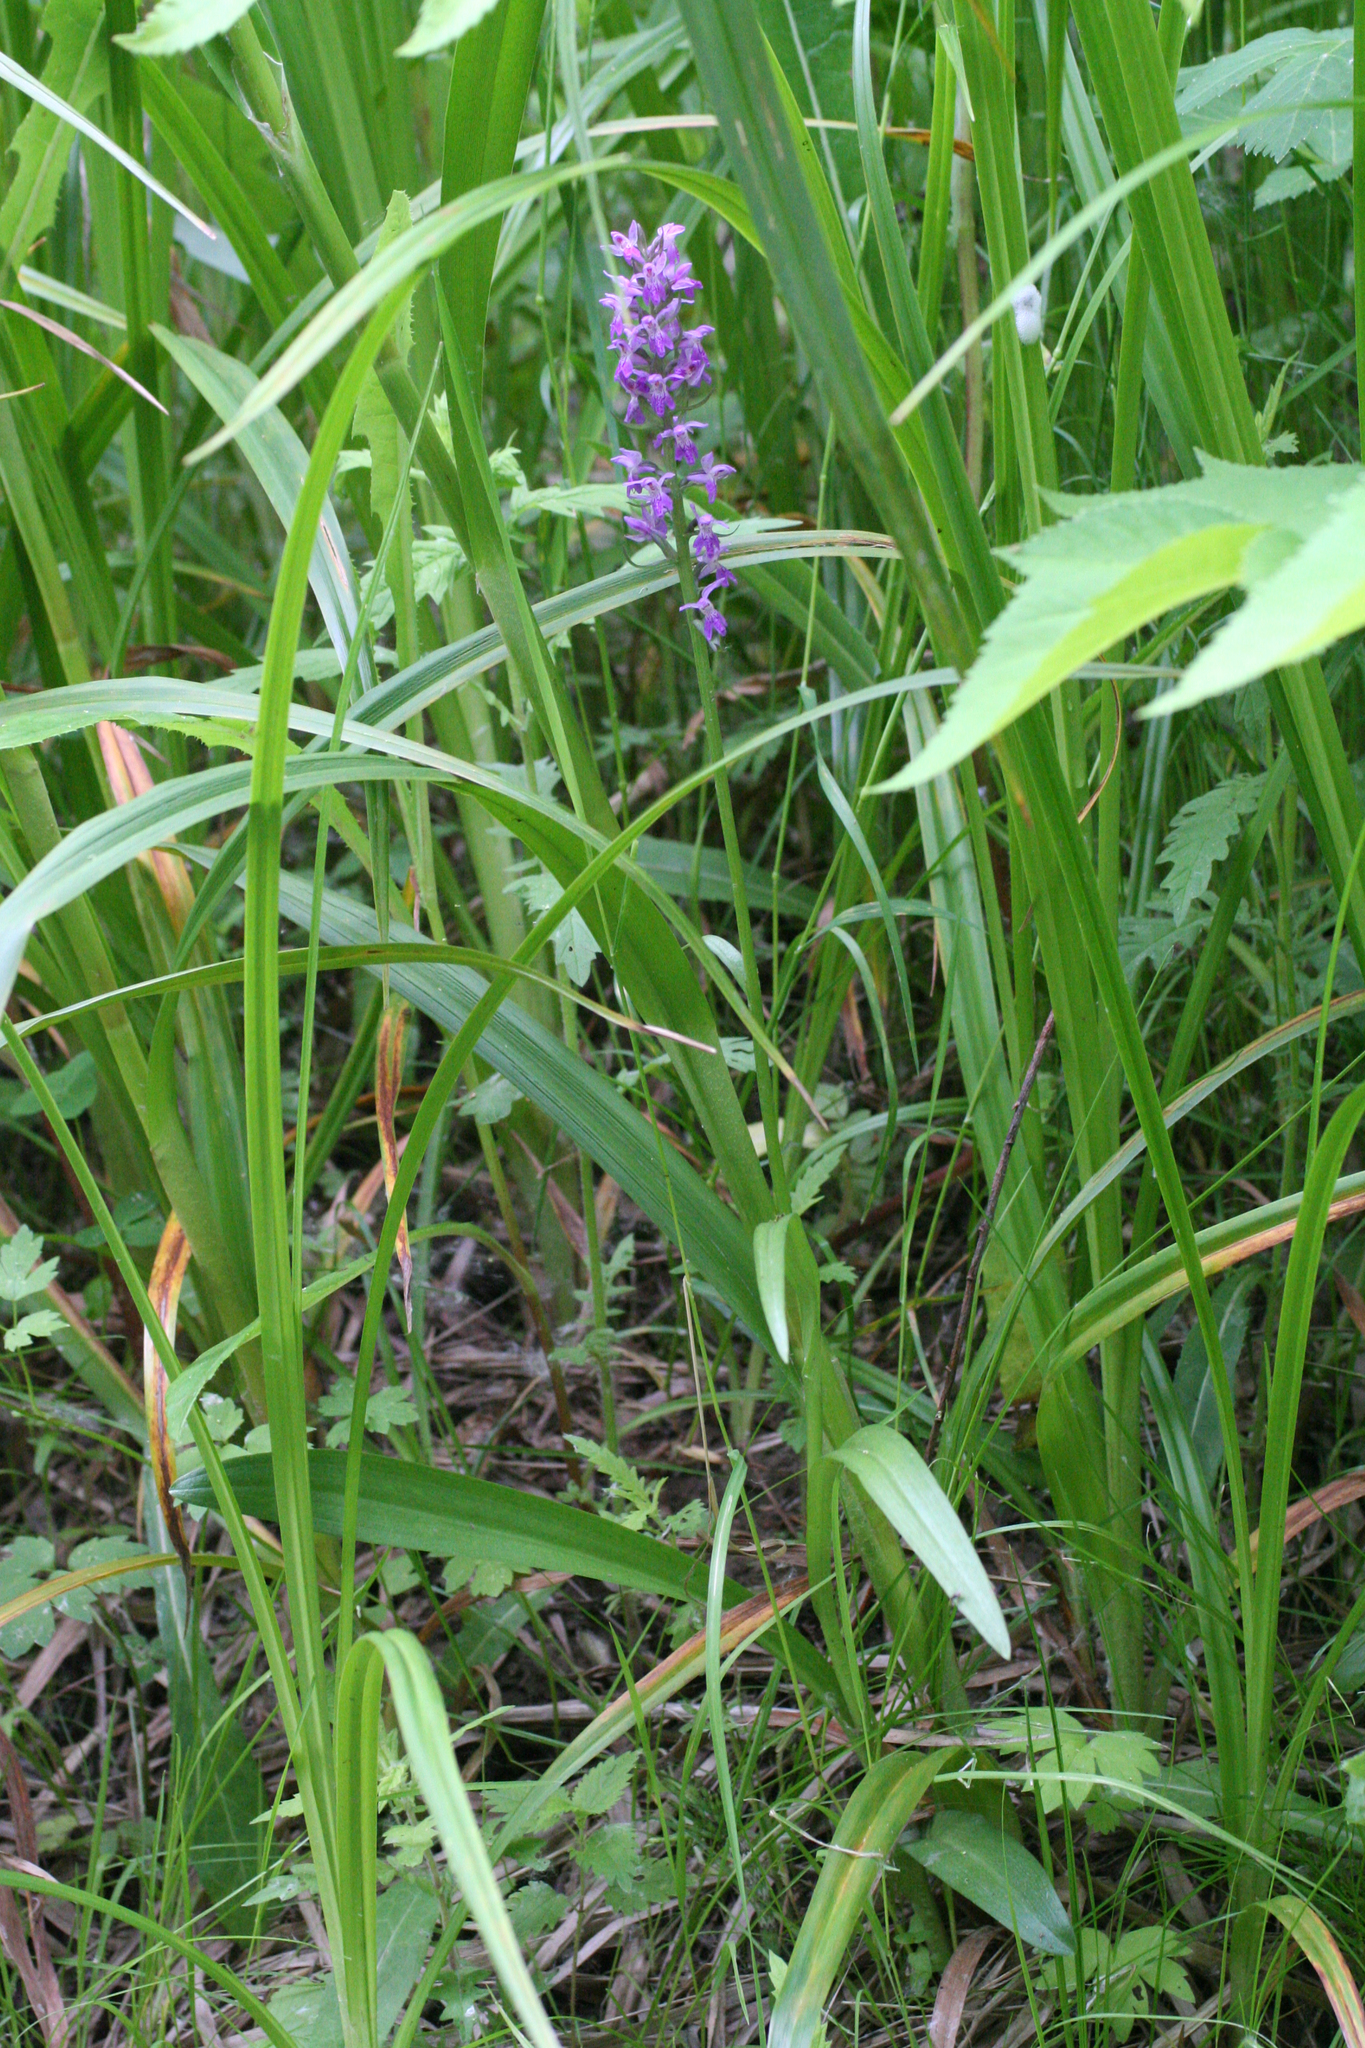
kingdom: Plantae
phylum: Tracheophyta
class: Liliopsida
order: Asparagales
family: Orchidaceae
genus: Dactylorhiza
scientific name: Dactylorhiza sibirica
